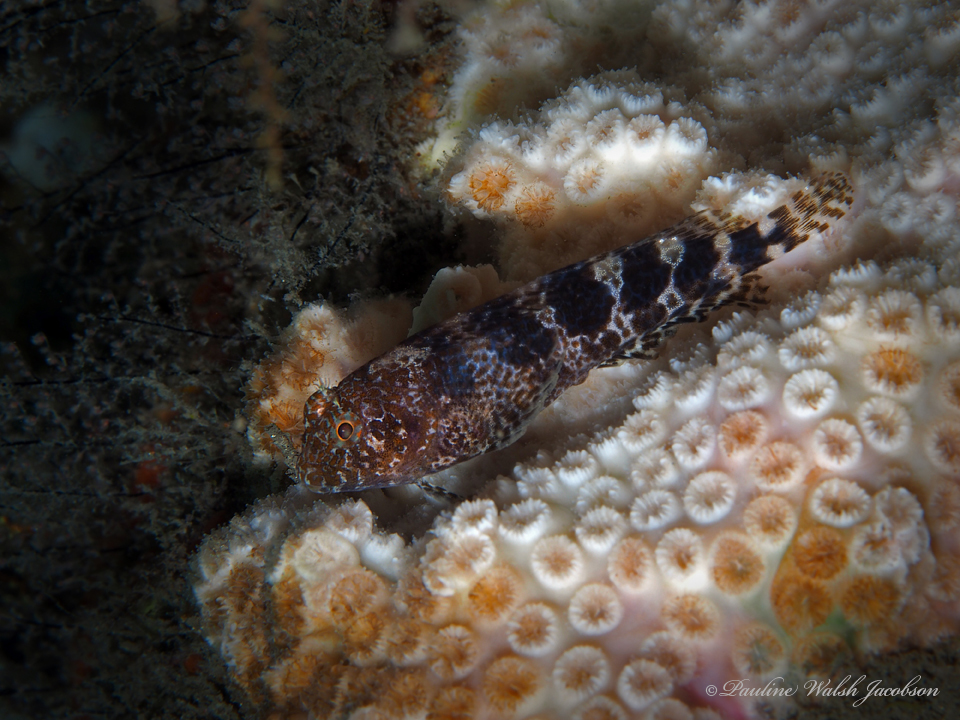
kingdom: Animalia
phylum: Chordata
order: Perciformes
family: Blenniidae
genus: Hypleurochilus
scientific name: Hypleurochilus bermudensis
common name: Barred blenny
